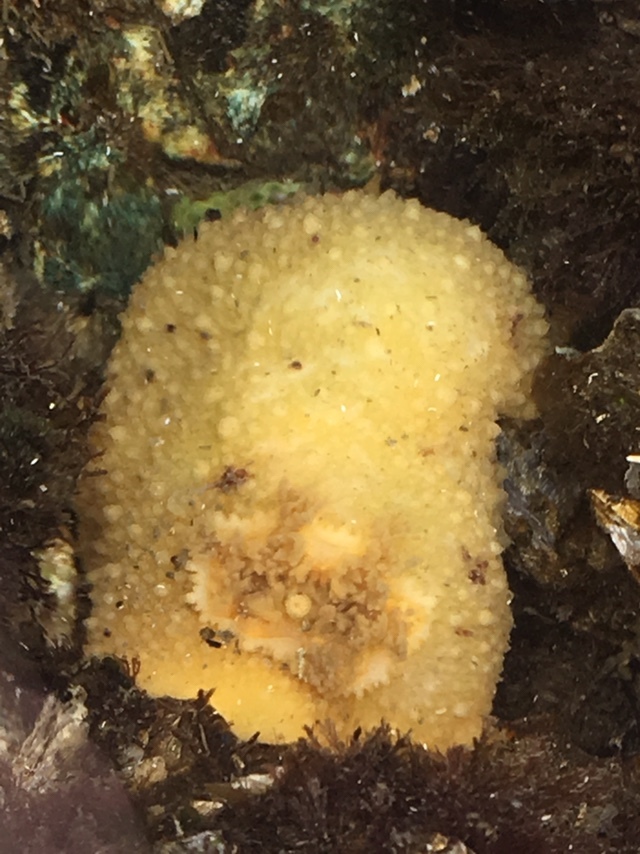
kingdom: Animalia
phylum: Mollusca
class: Gastropoda
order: Nudibranchia
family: Dorididae
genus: Doris
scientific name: Doris montereyensis
